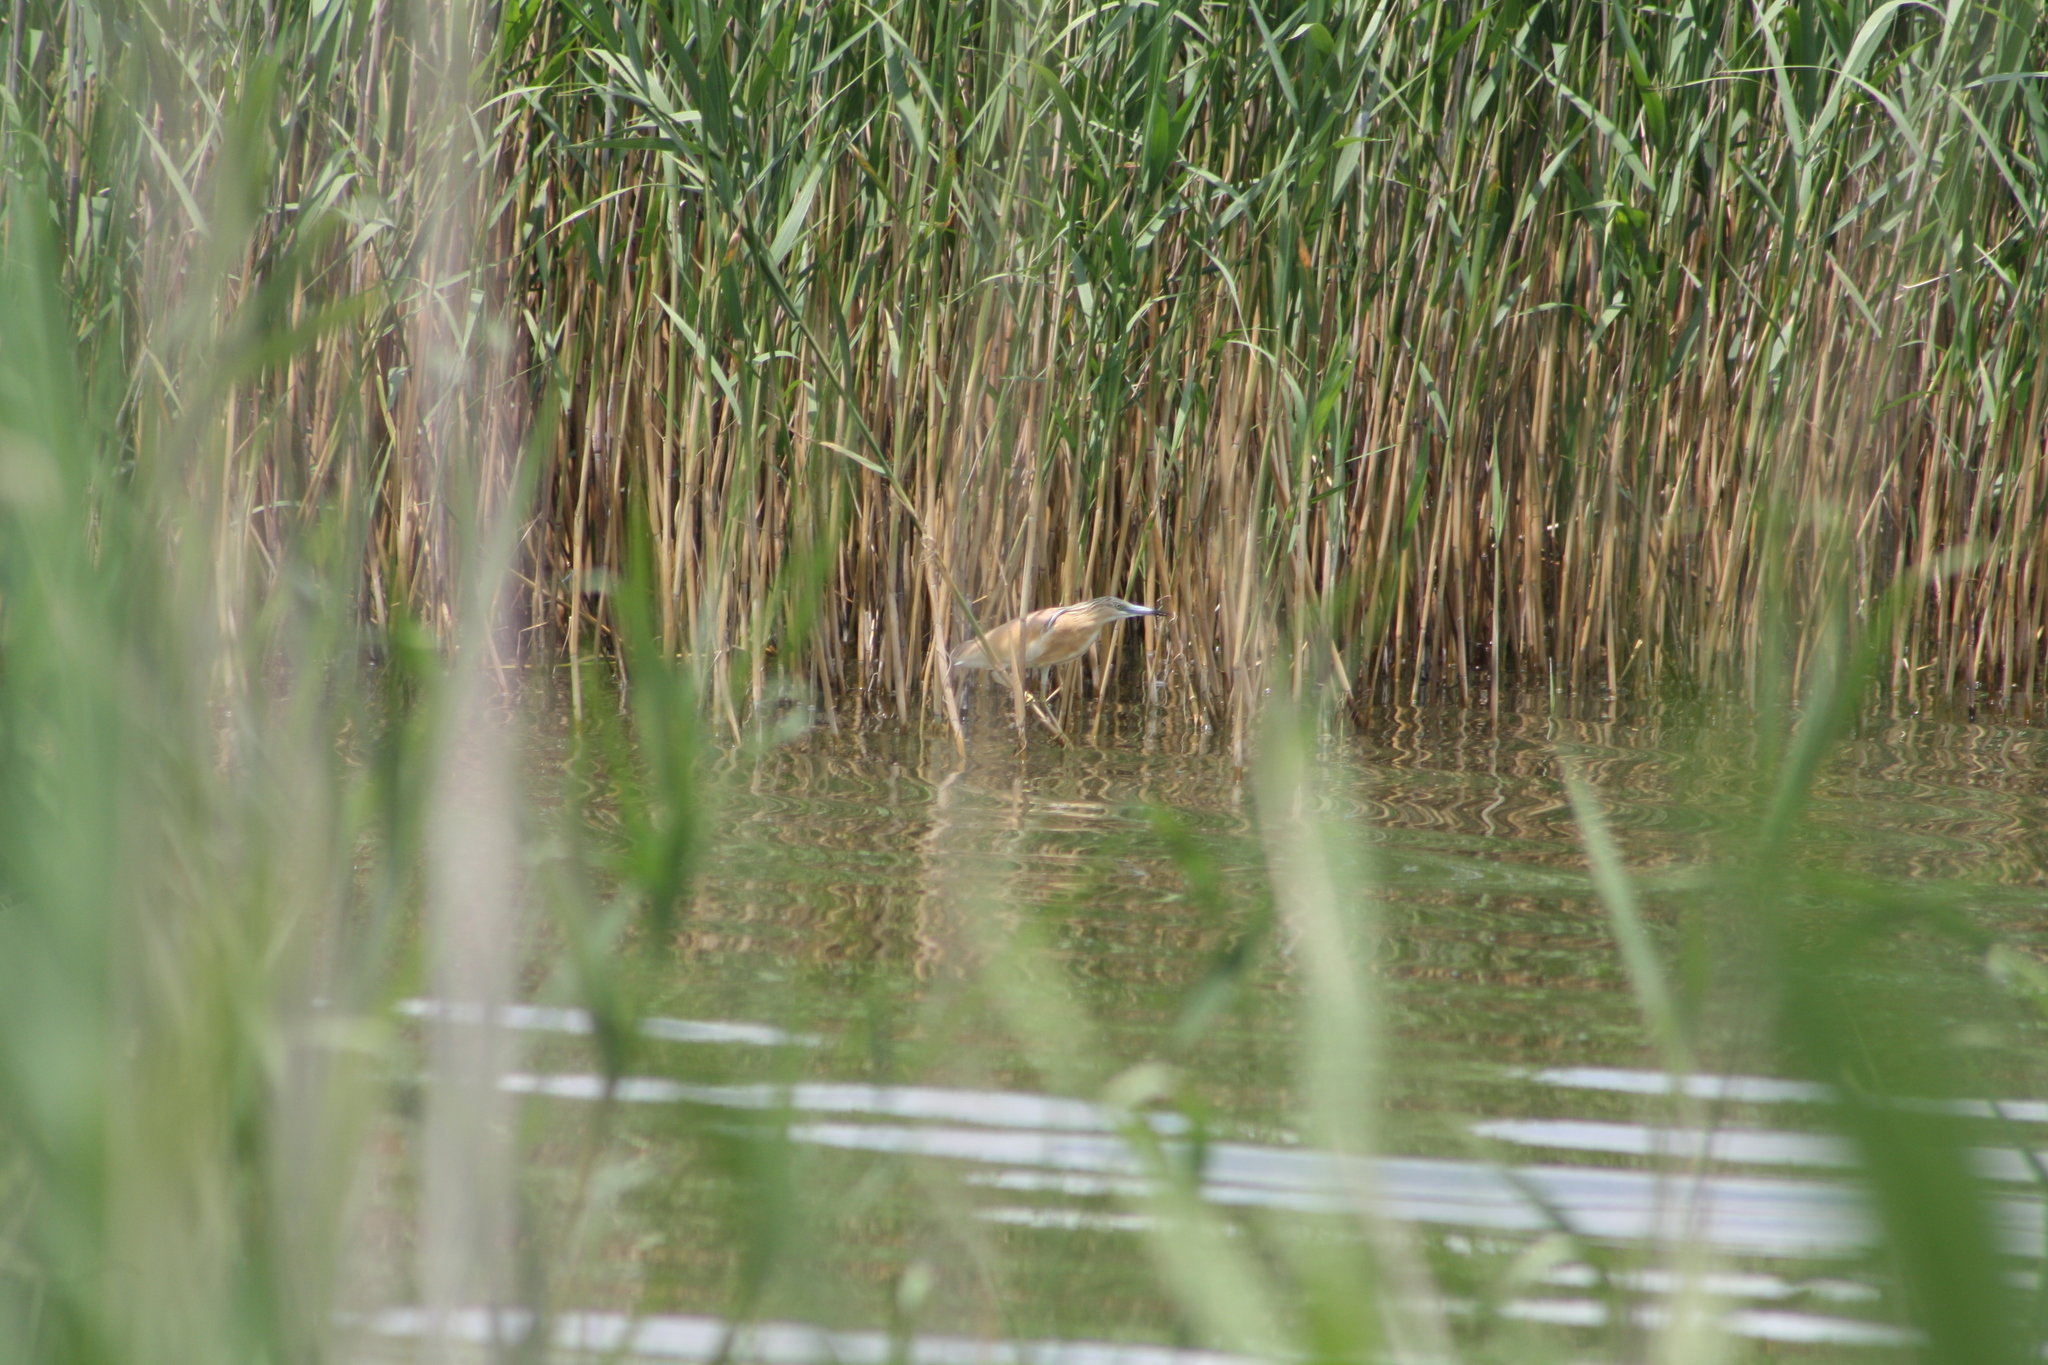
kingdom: Animalia
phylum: Chordata
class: Aves
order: Pelecaniformes
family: Ardeidae
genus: Ardeola
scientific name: Ardeola ralloides
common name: Squacco heron
